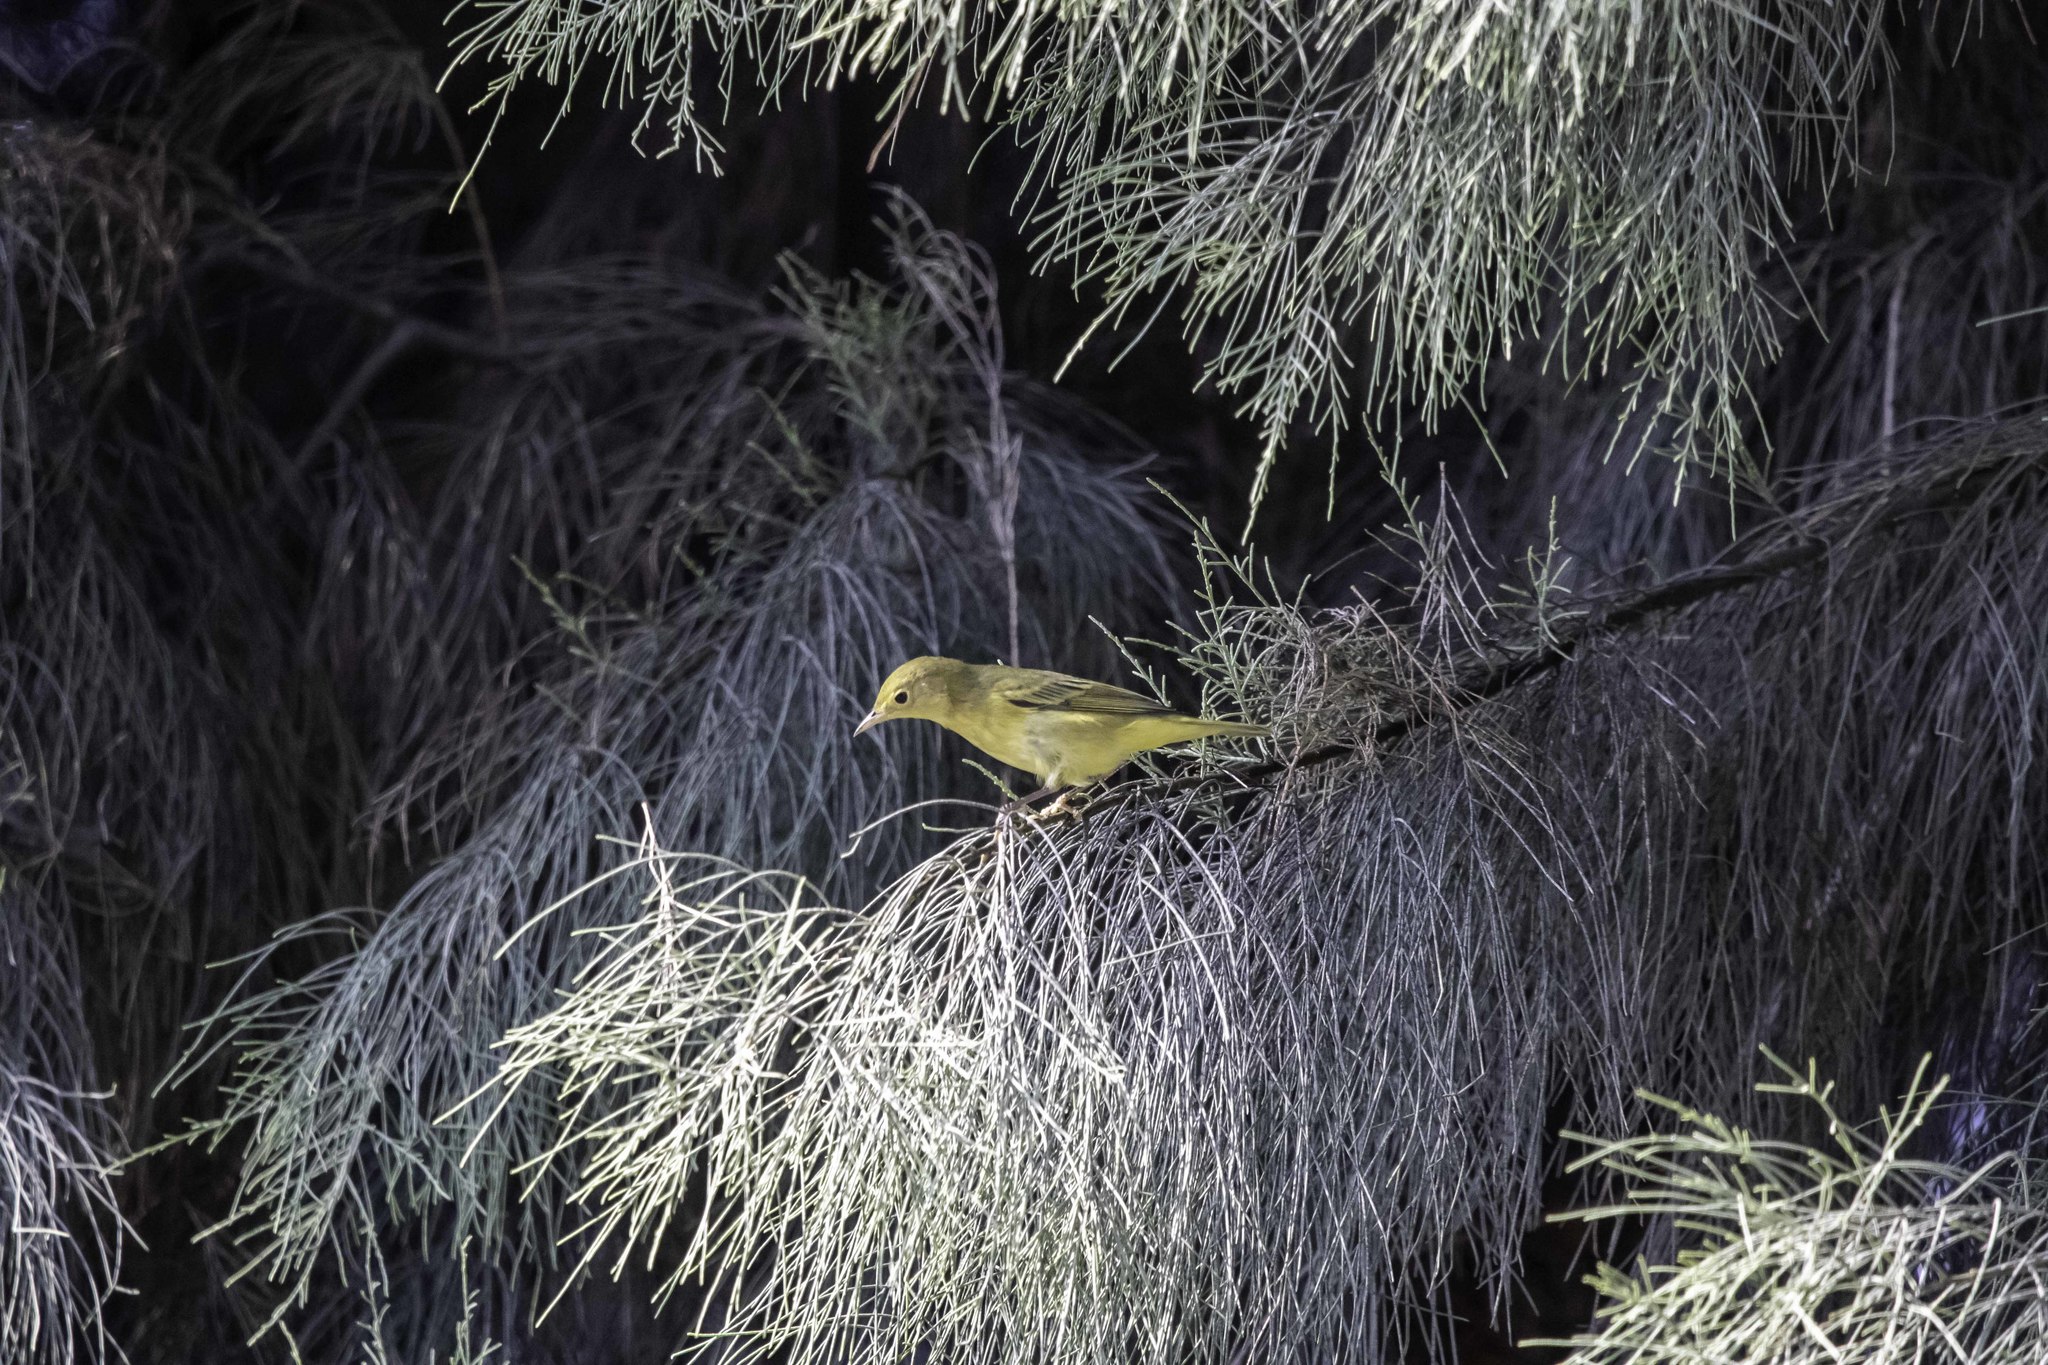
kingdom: Animalia
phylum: Chordata
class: Aves
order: Passeriformes
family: Icteridae
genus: Icterus
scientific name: Icterus cucullatus
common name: Hooded oriole
